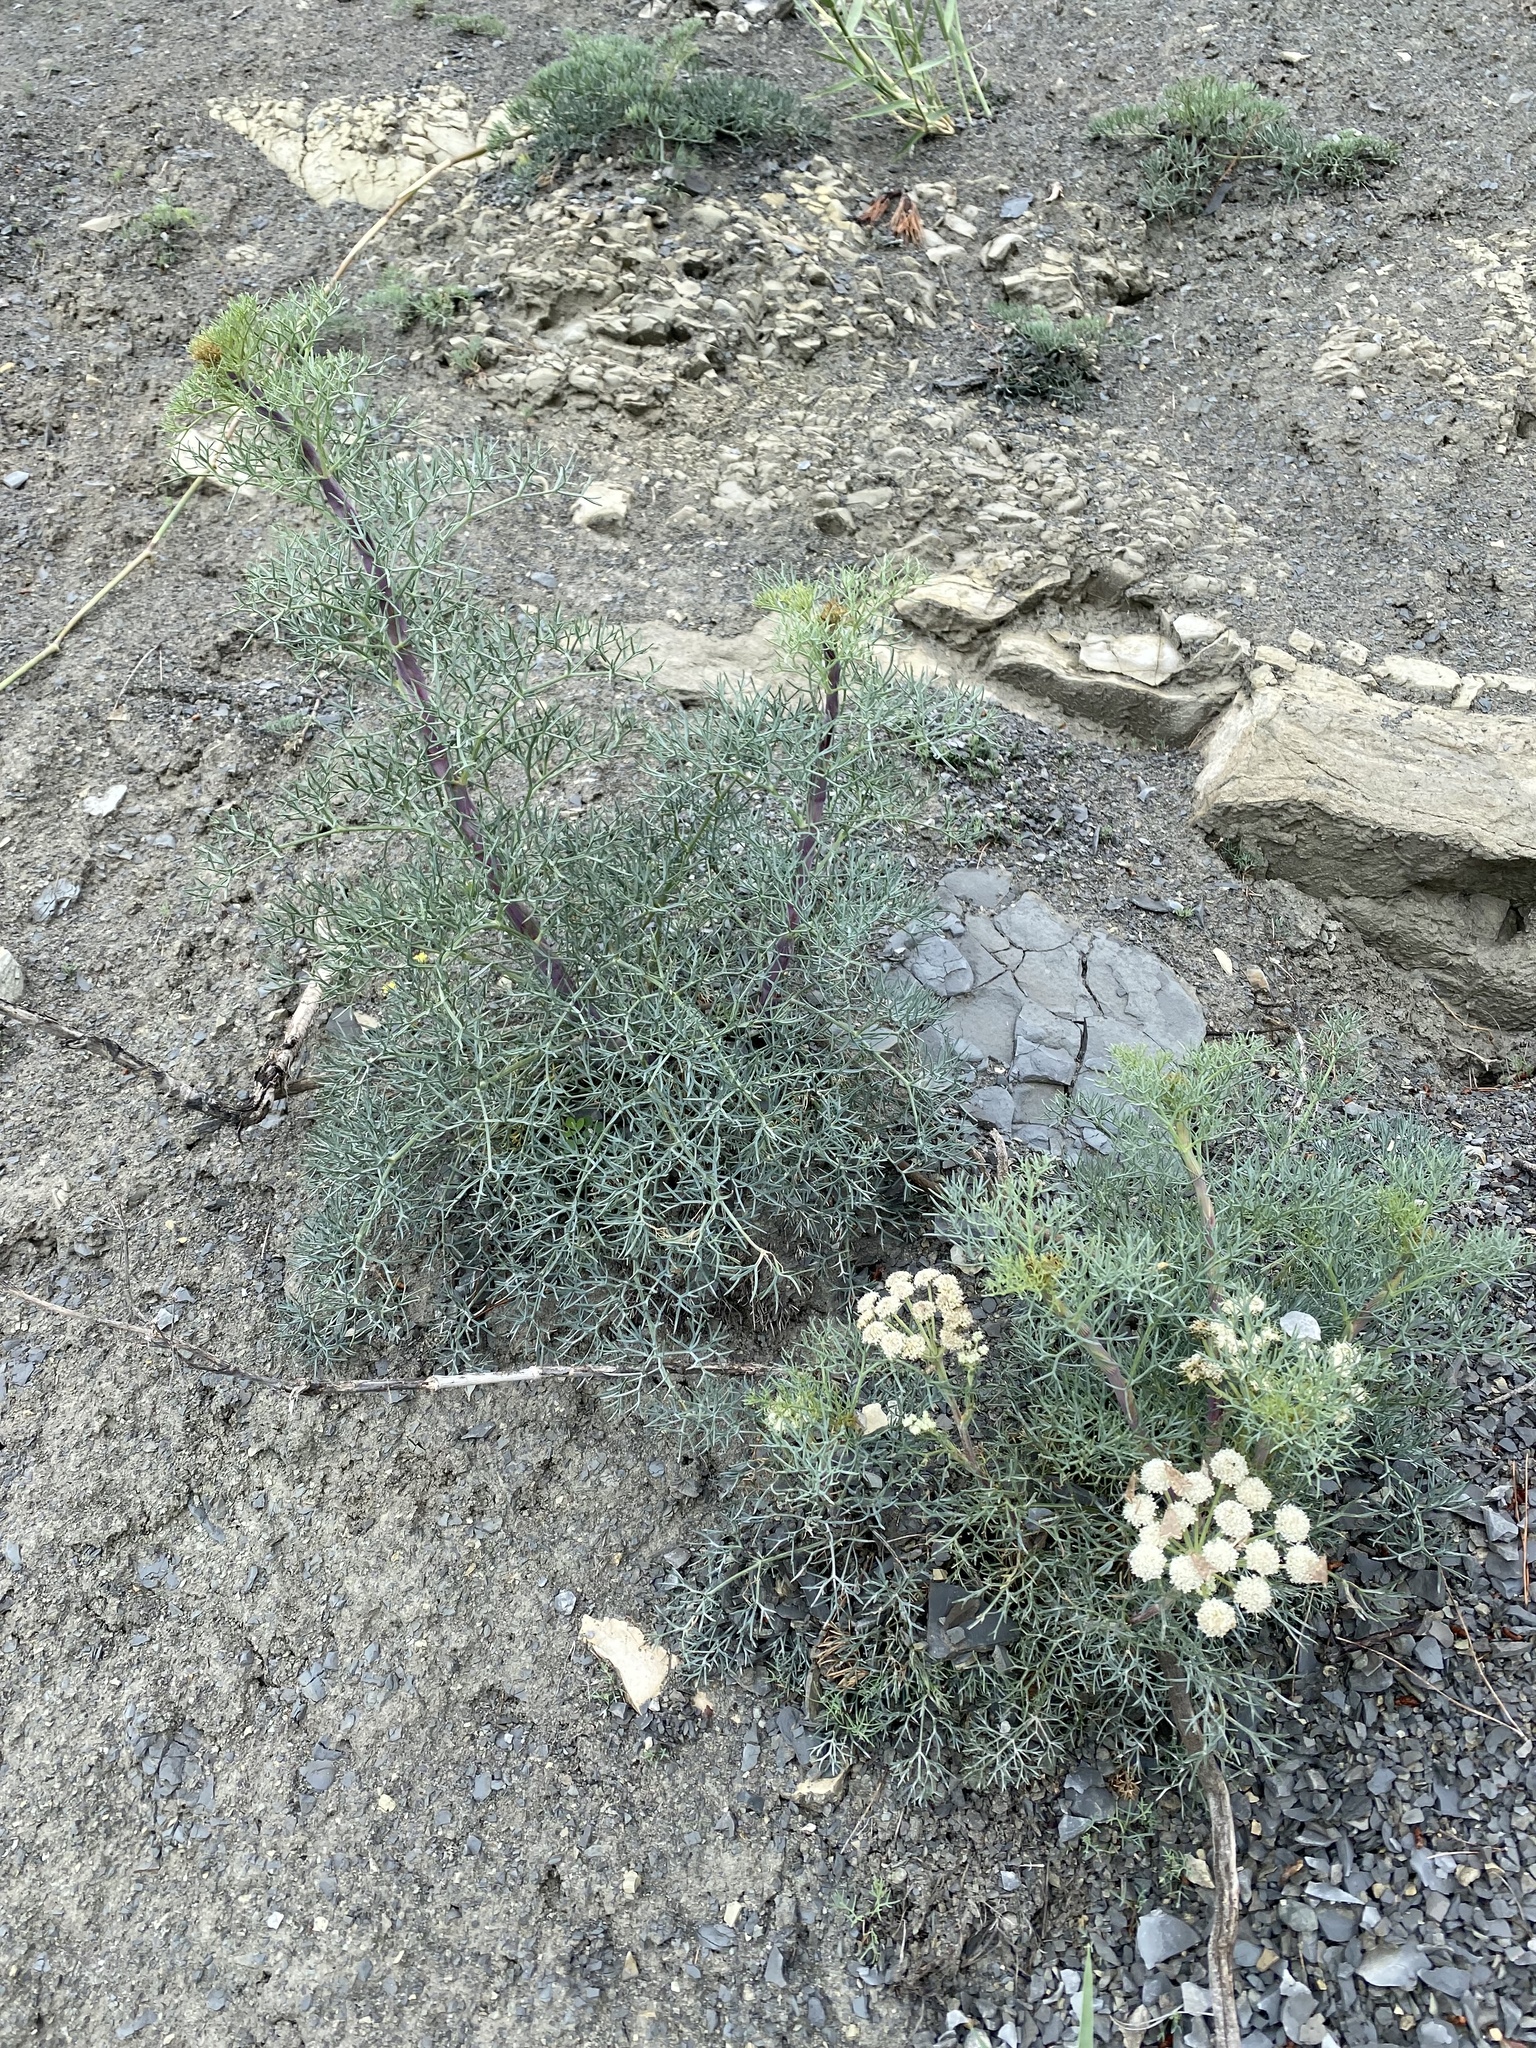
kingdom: Plantae
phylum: Tracheophyta
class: Magnoliopsida
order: Apiales
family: Apiaceae
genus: Seseli
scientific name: Seseli ponticum
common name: Pontic seseli
